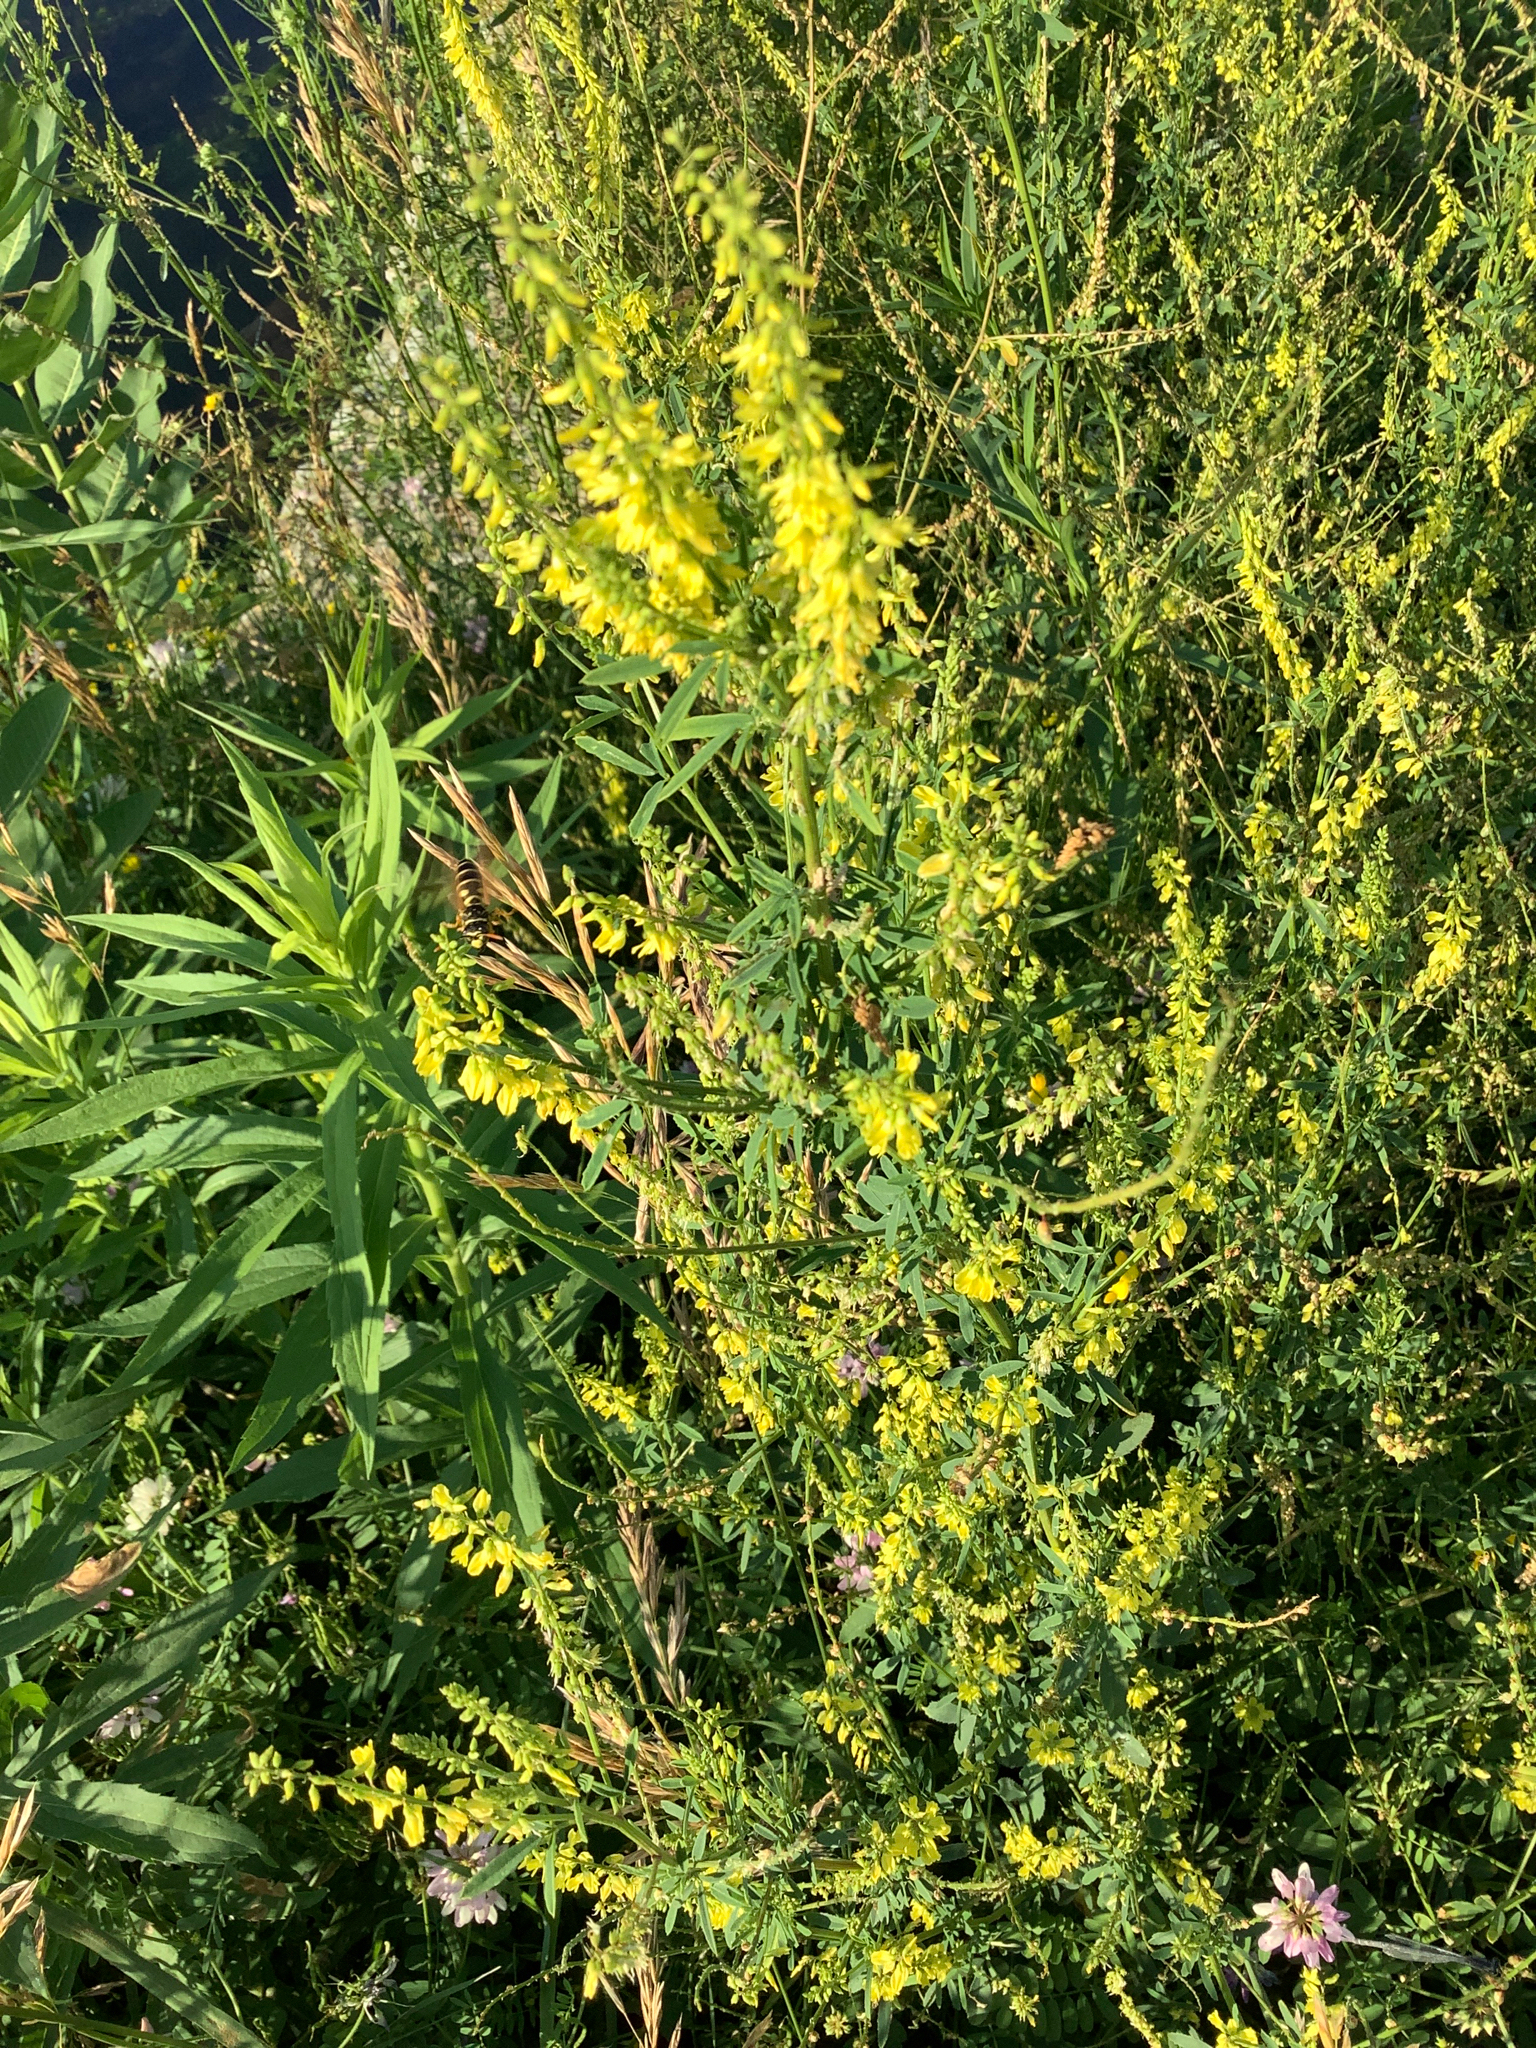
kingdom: Plantae
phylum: Tracheophyta
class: Magnoliopsida
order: Fabales
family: Fabaceae
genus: Melilotus
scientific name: Melilotus officinalis
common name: Sweetclover
